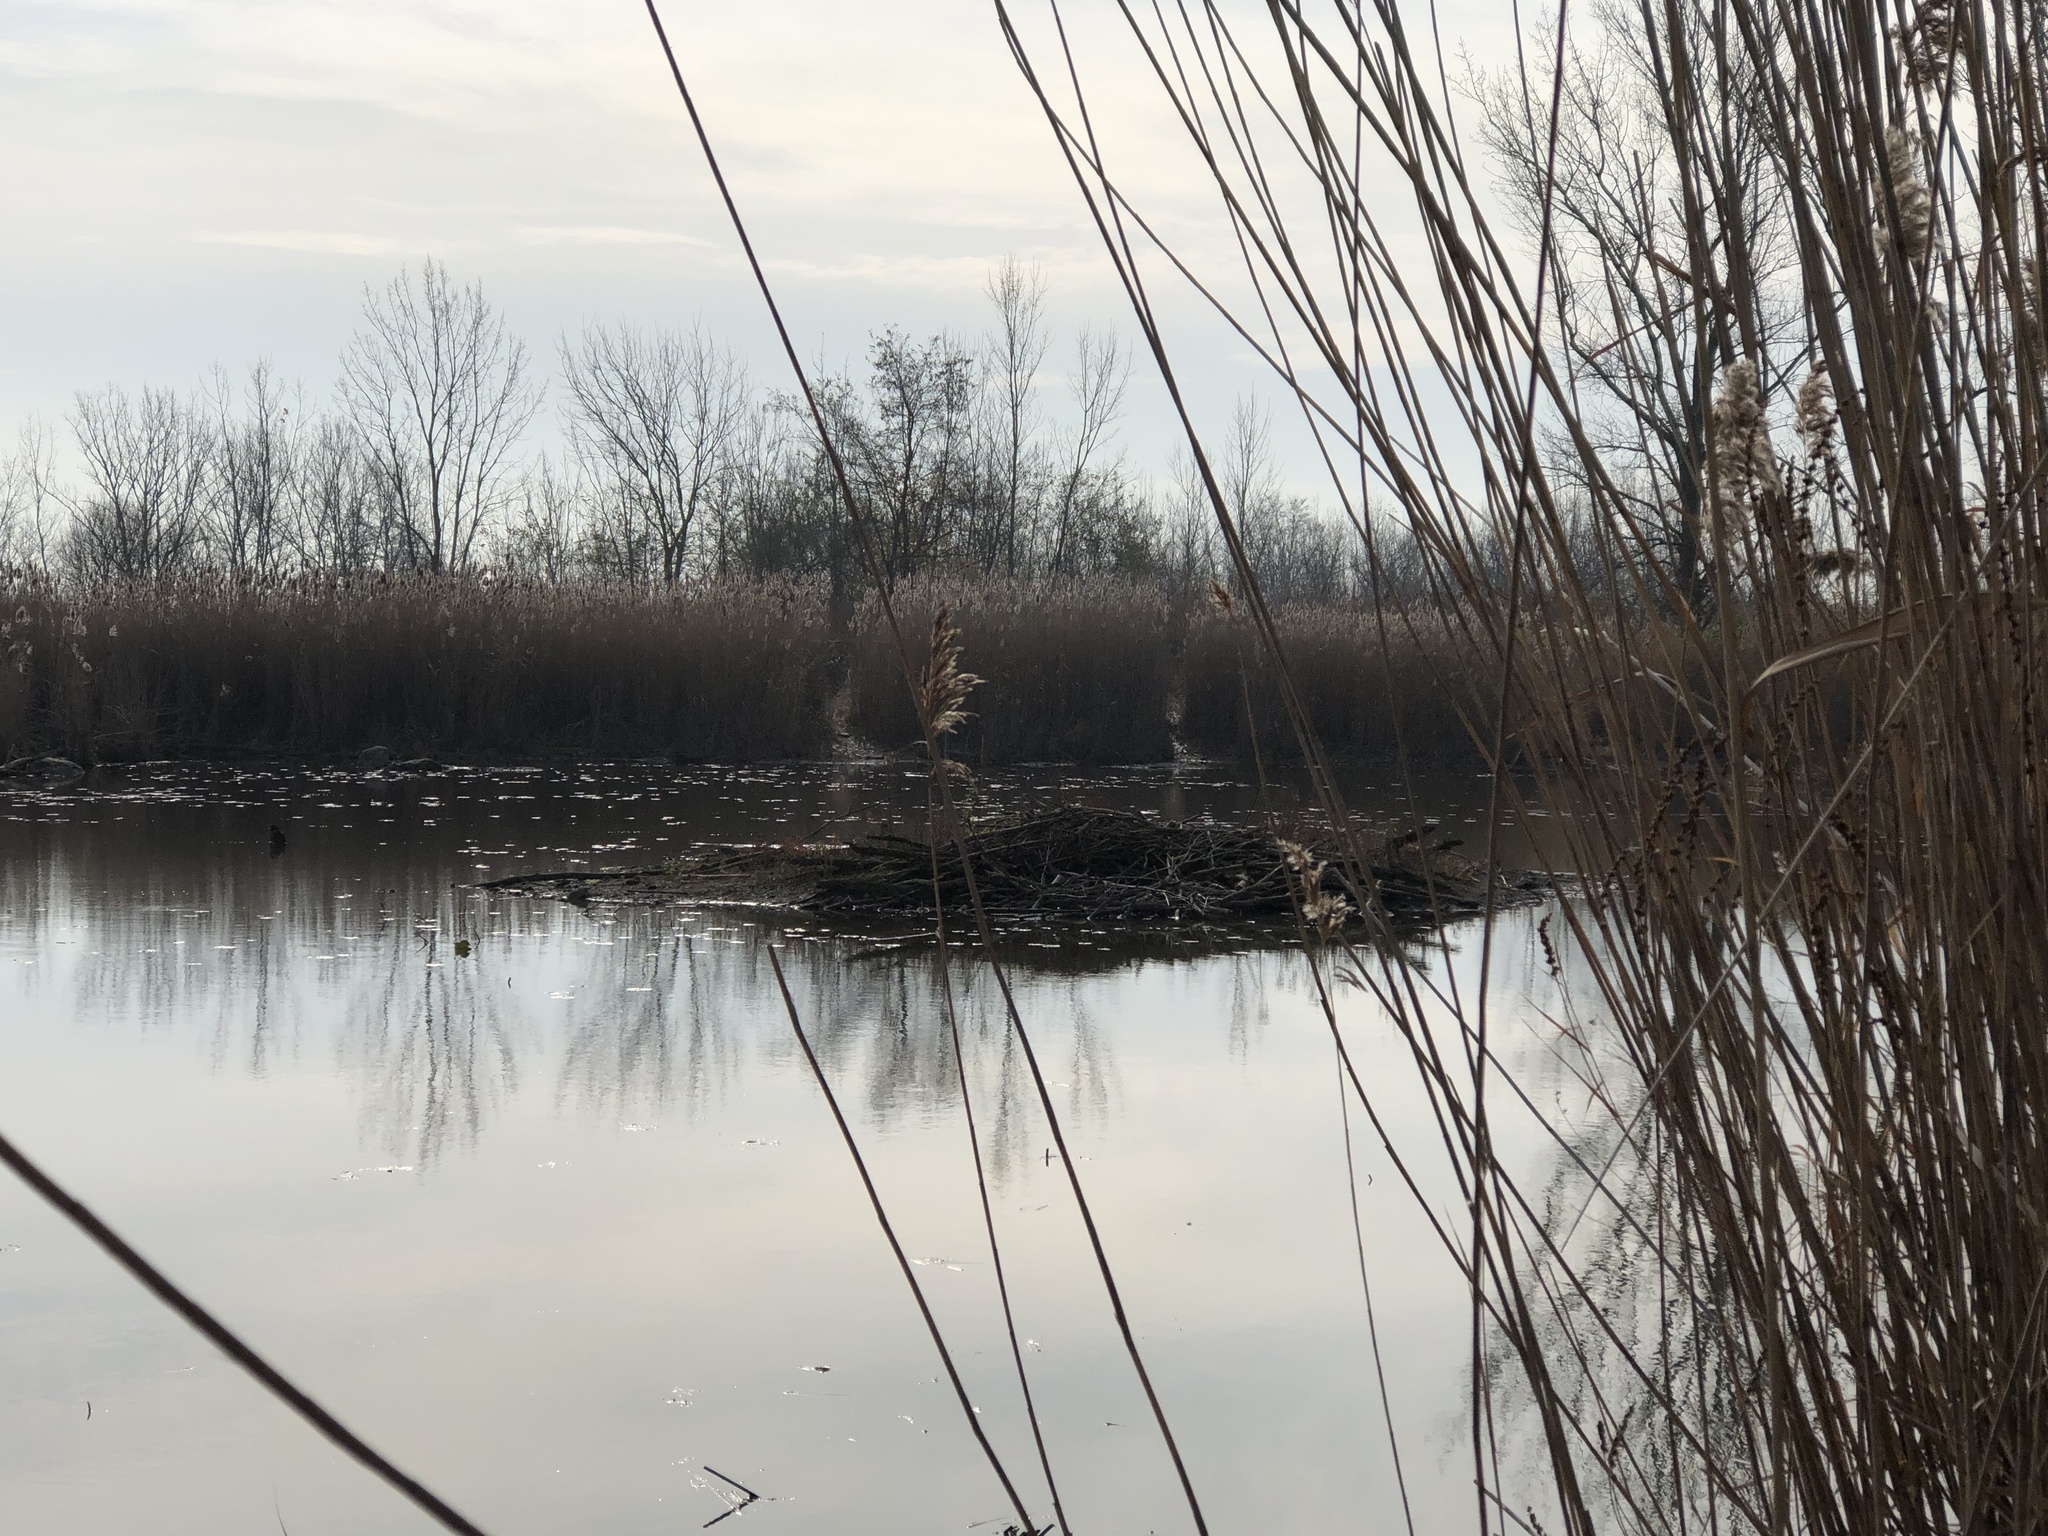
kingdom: Animalia
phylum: Chordata
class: Mammalia
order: Rodentia
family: Castoridae
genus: Castor
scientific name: Castor canadensis
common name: American beaver
